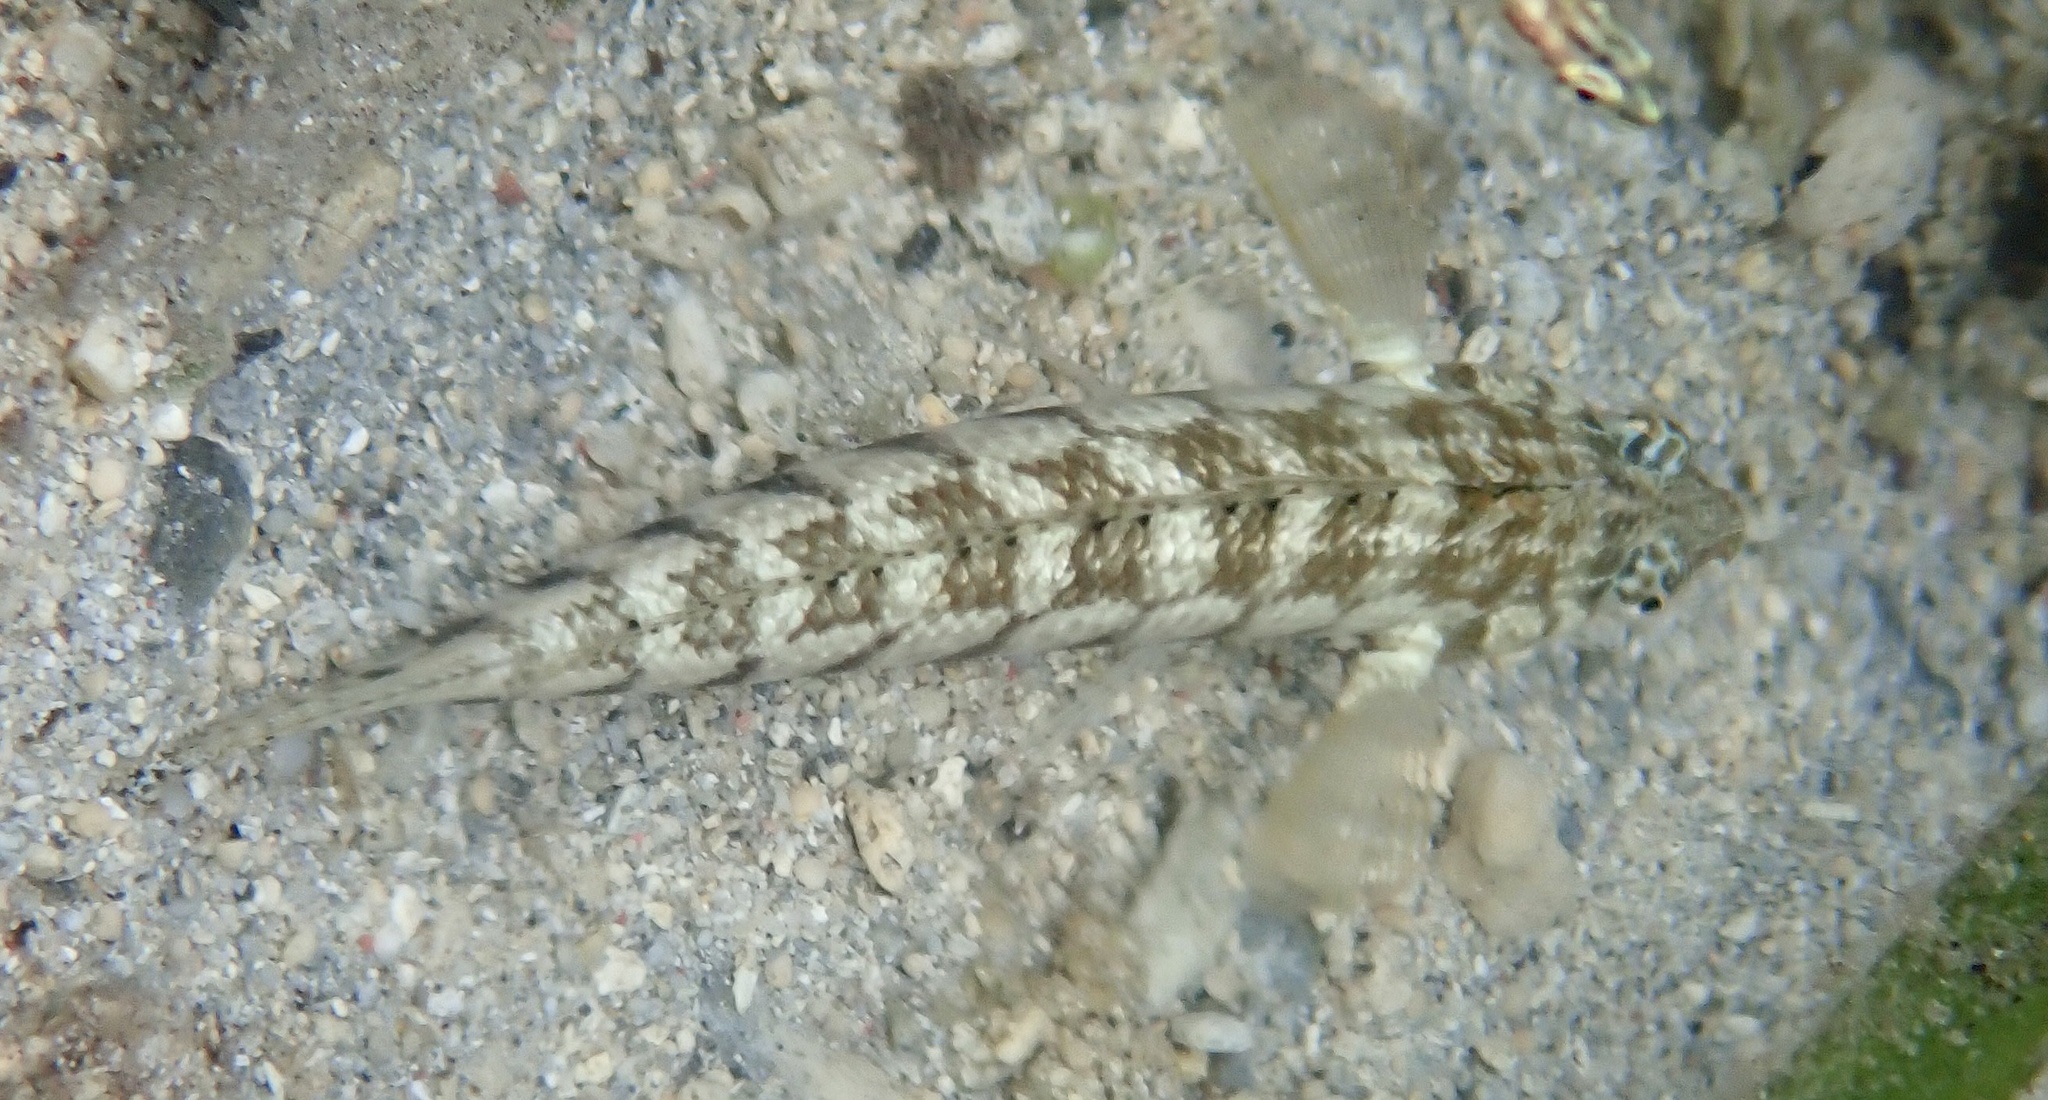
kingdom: Animalia
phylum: Chordata
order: Perciformes
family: Pinguipedidae
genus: Parapercis
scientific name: Parapercis cylindrica
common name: Cylindrical sandperch
